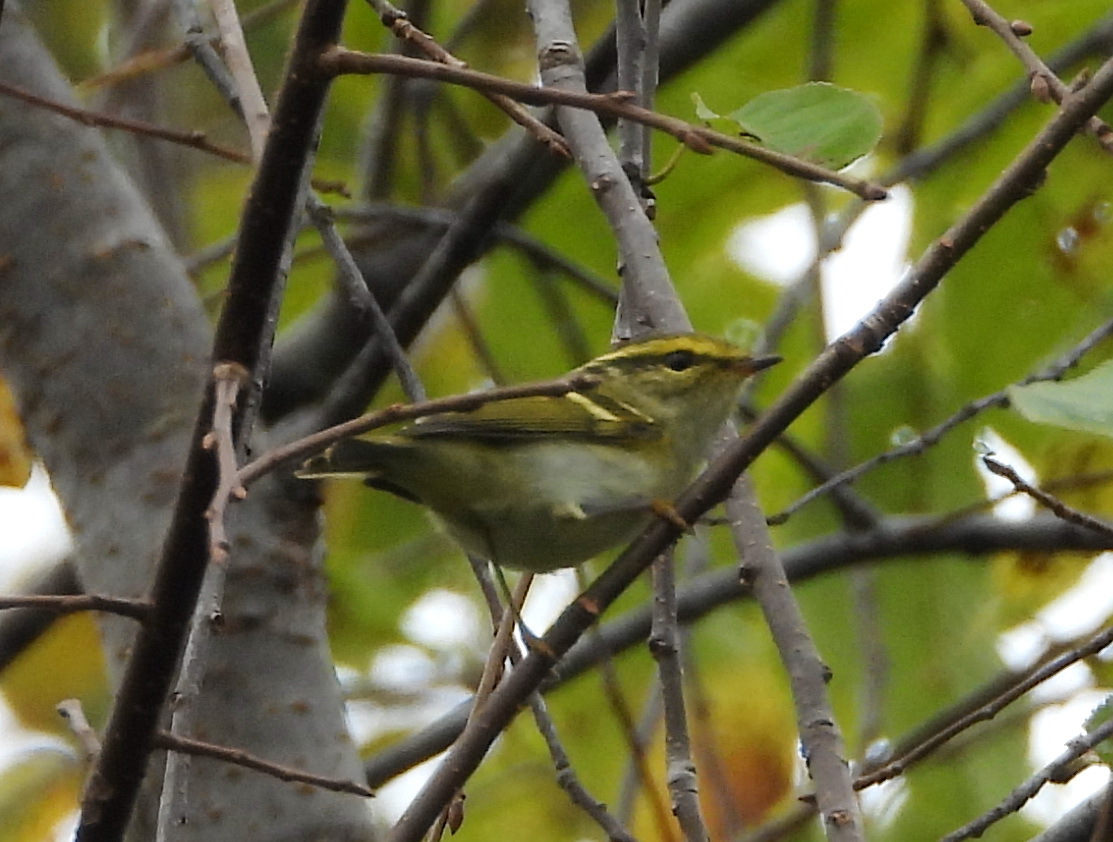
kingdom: Animalia
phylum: Chordata
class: Aves
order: Passeriformes
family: Phylloscopidae
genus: Phylloscopus
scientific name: Phylloscopus proregulus
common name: Pallas's leaf warbler
